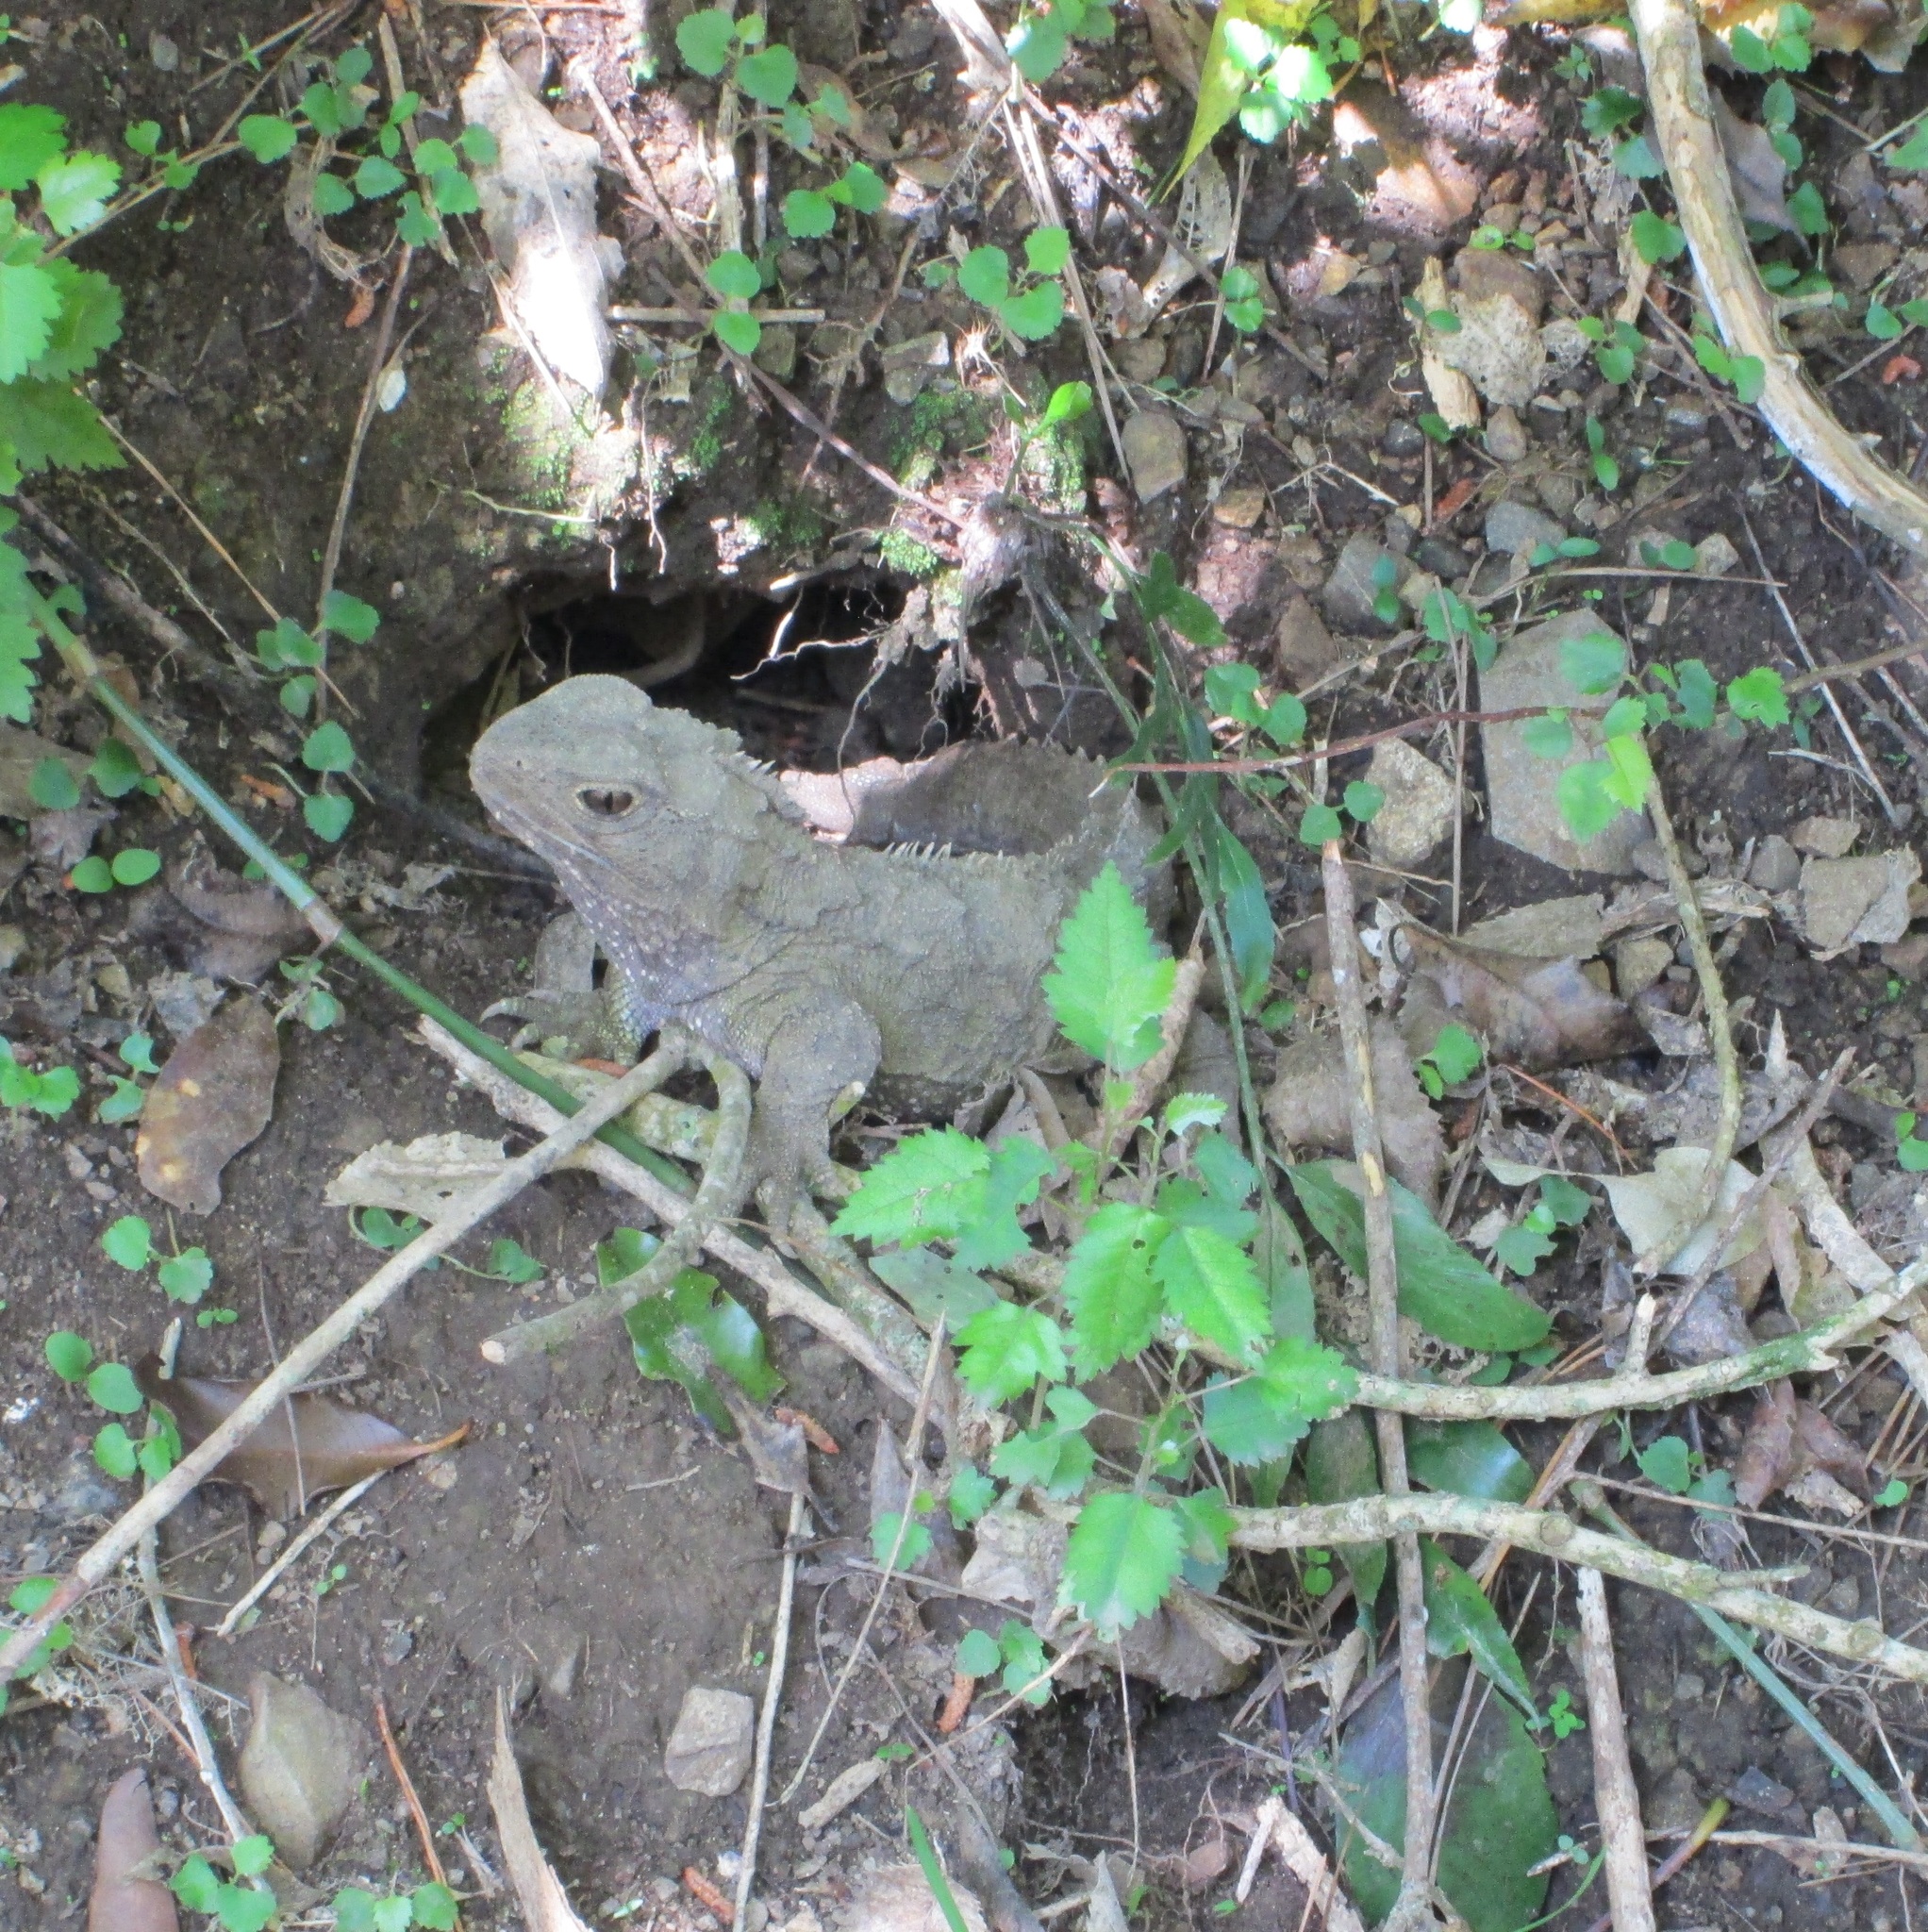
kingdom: Animalia
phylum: Chordata
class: Sphenodontia
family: Sphenodontidae
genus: Sphenodon
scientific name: Sphenodon punctatus
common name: Tuatara
